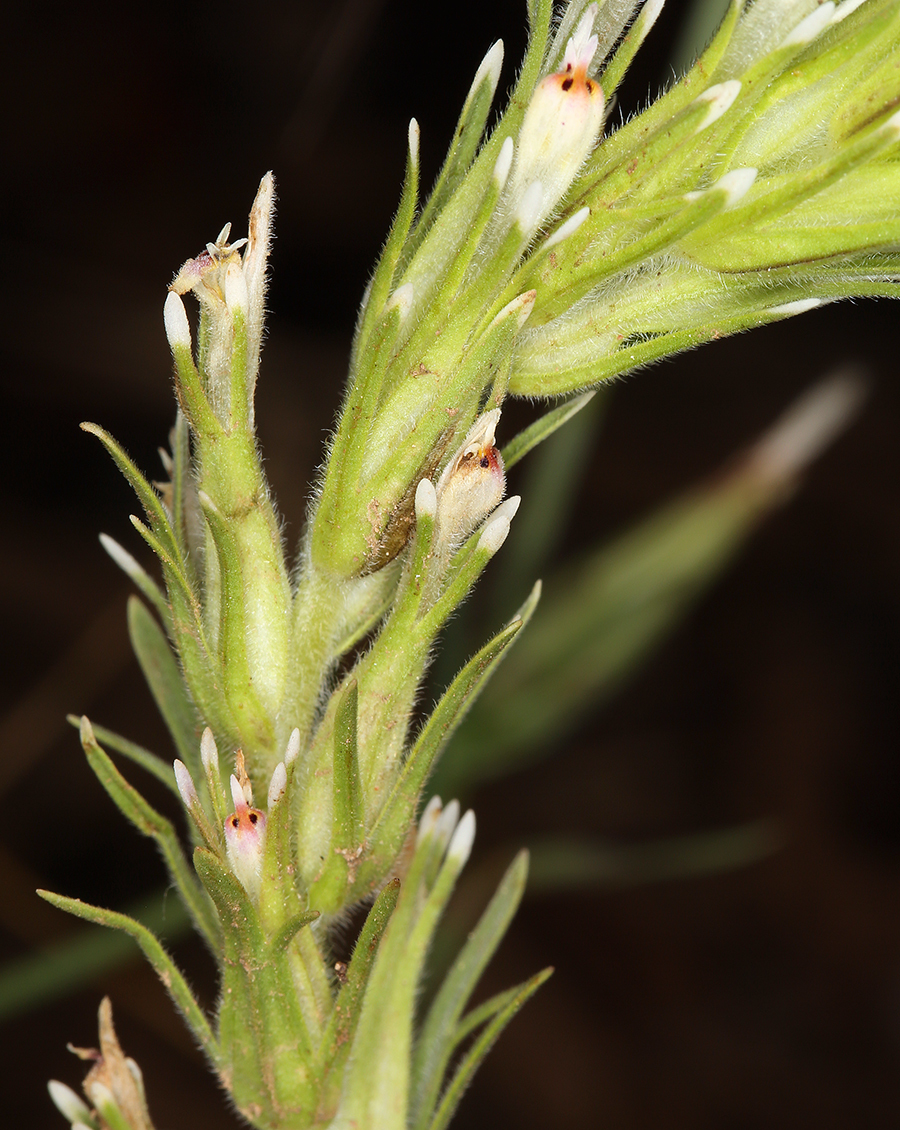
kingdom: Plantae
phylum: Tracheophyta
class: Magnoliopsida
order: Lamiales
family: Orobanchaceae
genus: Castilleja
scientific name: Castilleja lineariloba
